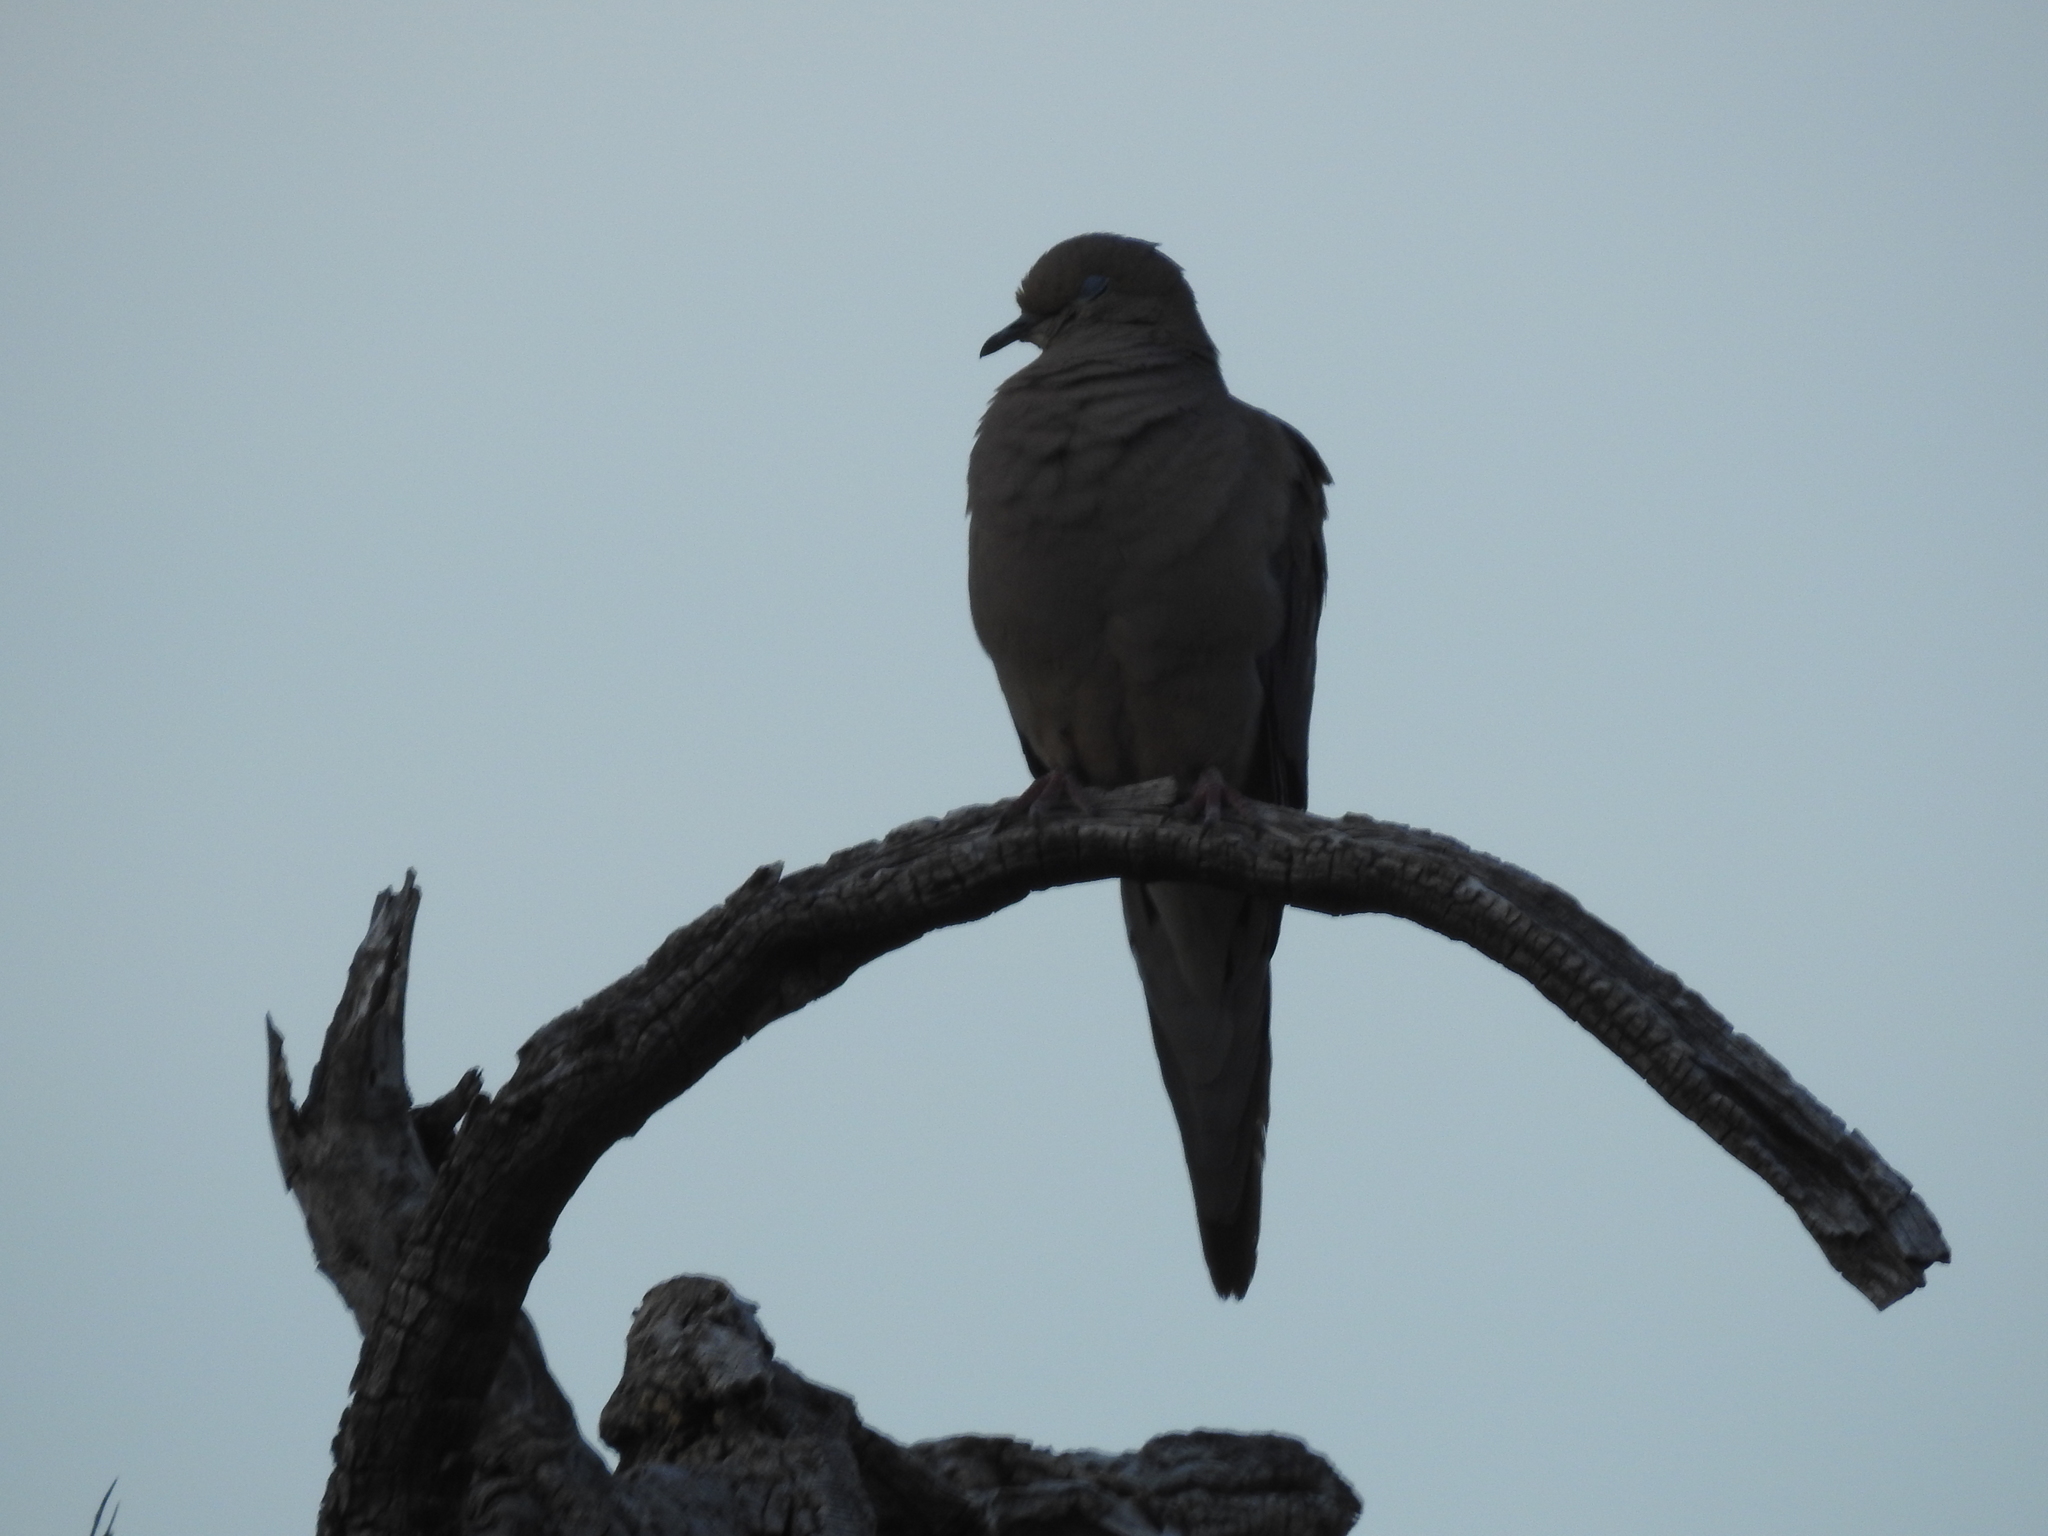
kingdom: Animalia
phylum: Chordata
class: Aves
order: Columbiformes
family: Columbidae
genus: Zenaida
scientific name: Zenaida macroura
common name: Mourning dove
